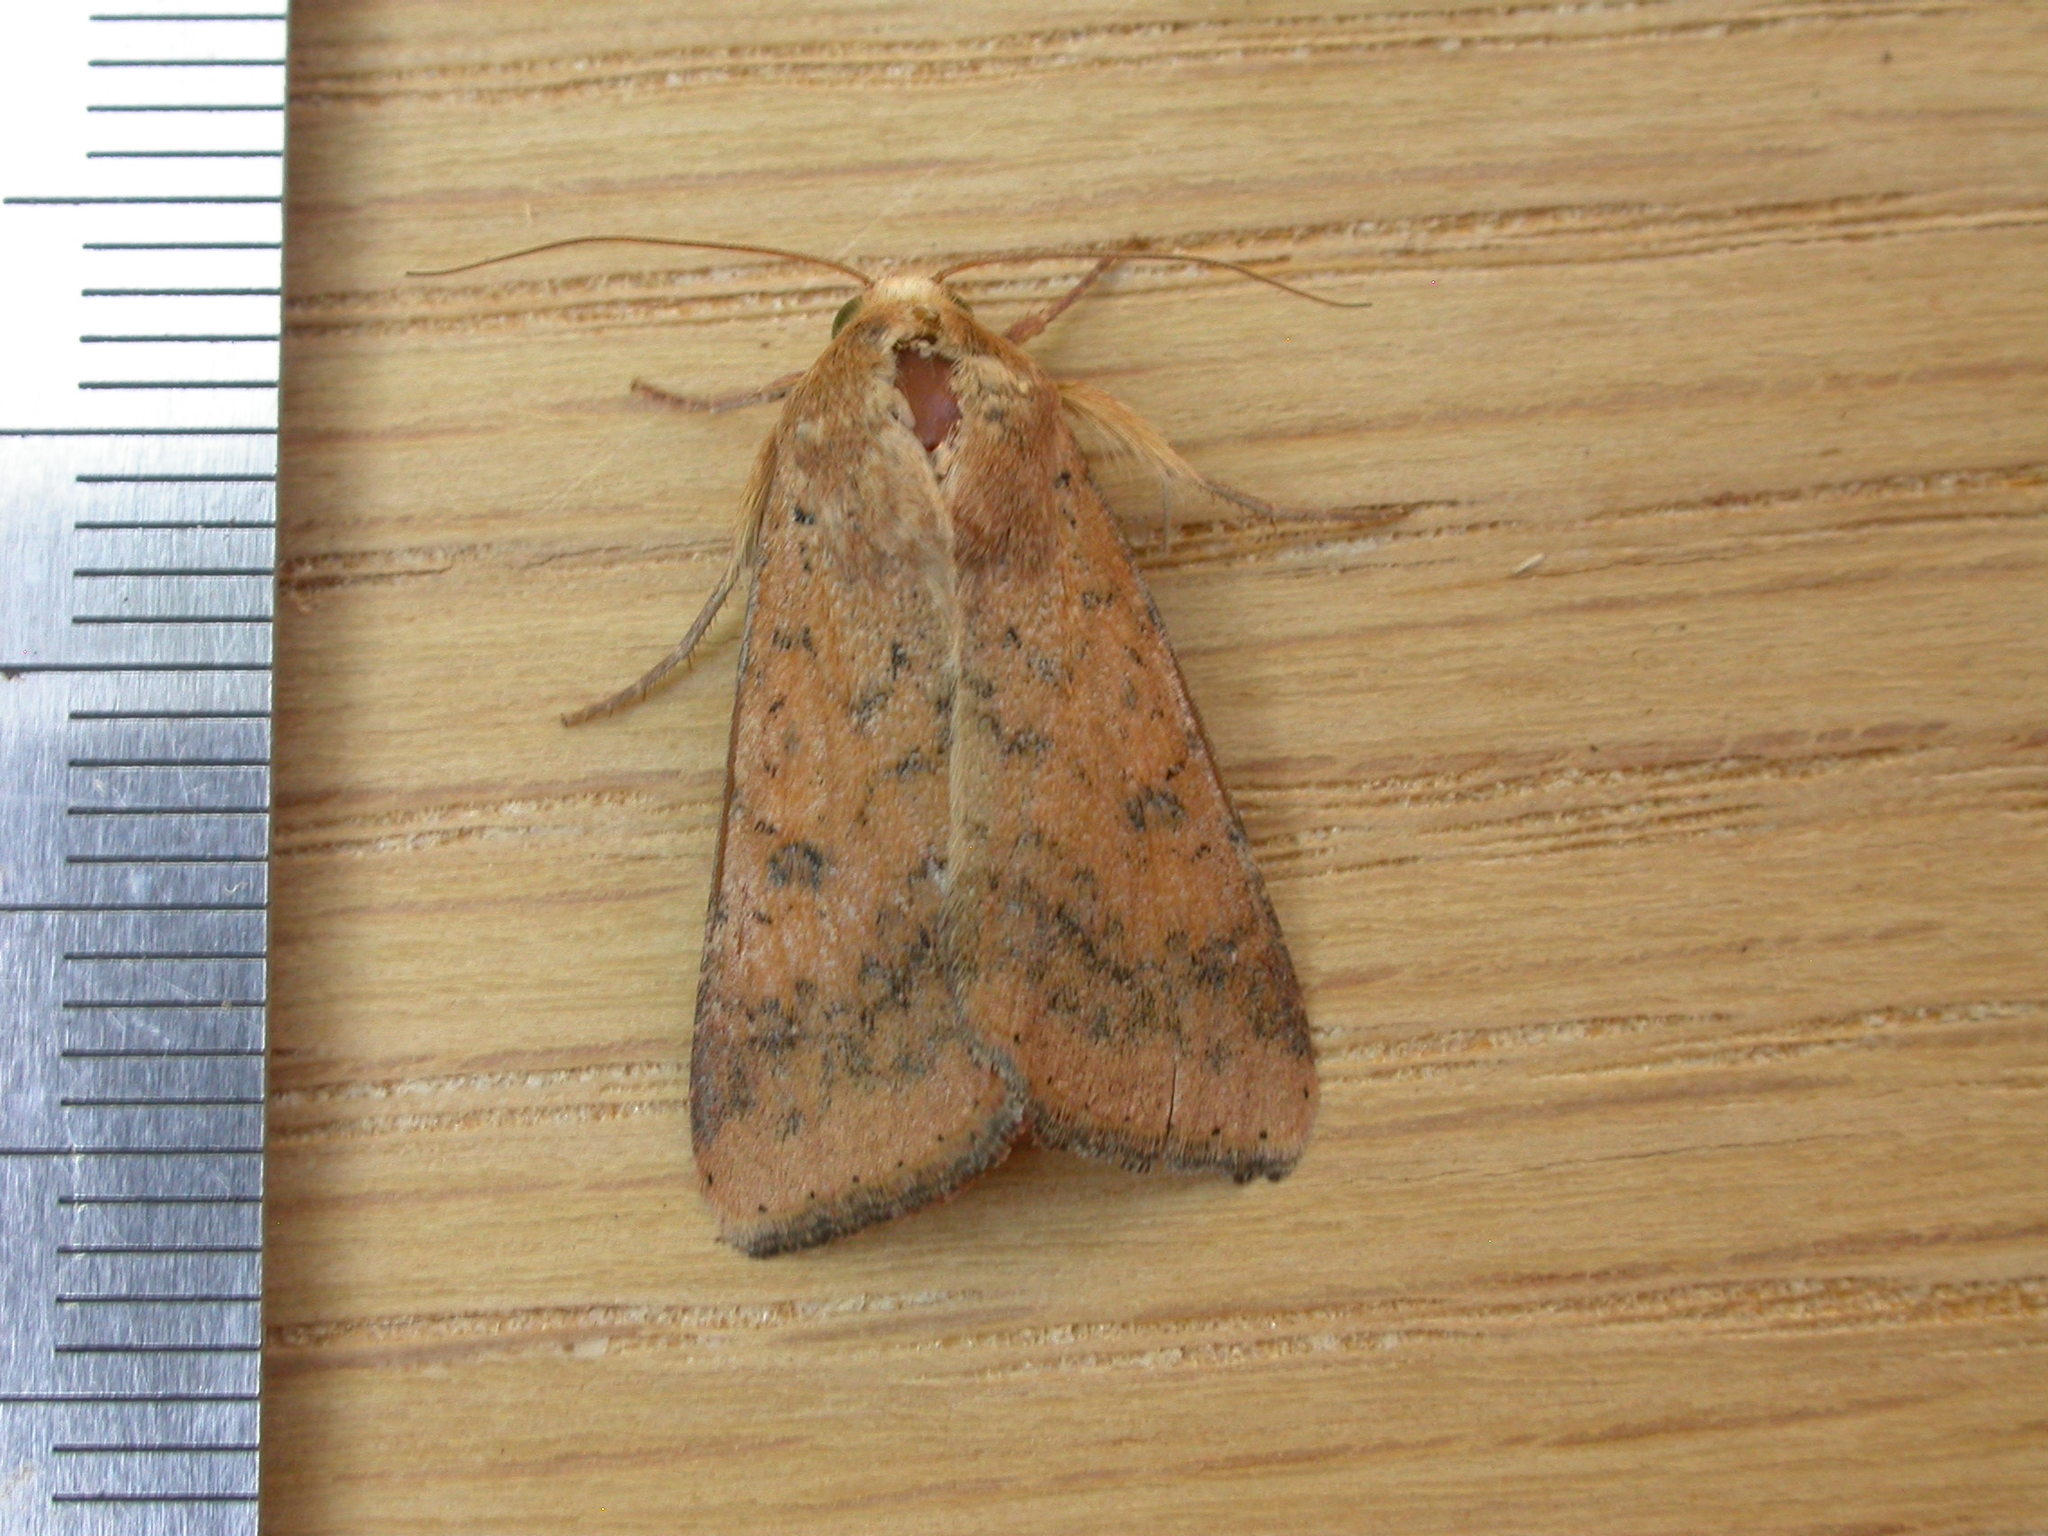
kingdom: Animalia
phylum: Arthropoda
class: Insecta
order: Lepidoptera
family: Noctuidae
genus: Helicoverpa
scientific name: Helicoverpa armigera
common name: Cotton bollworm
